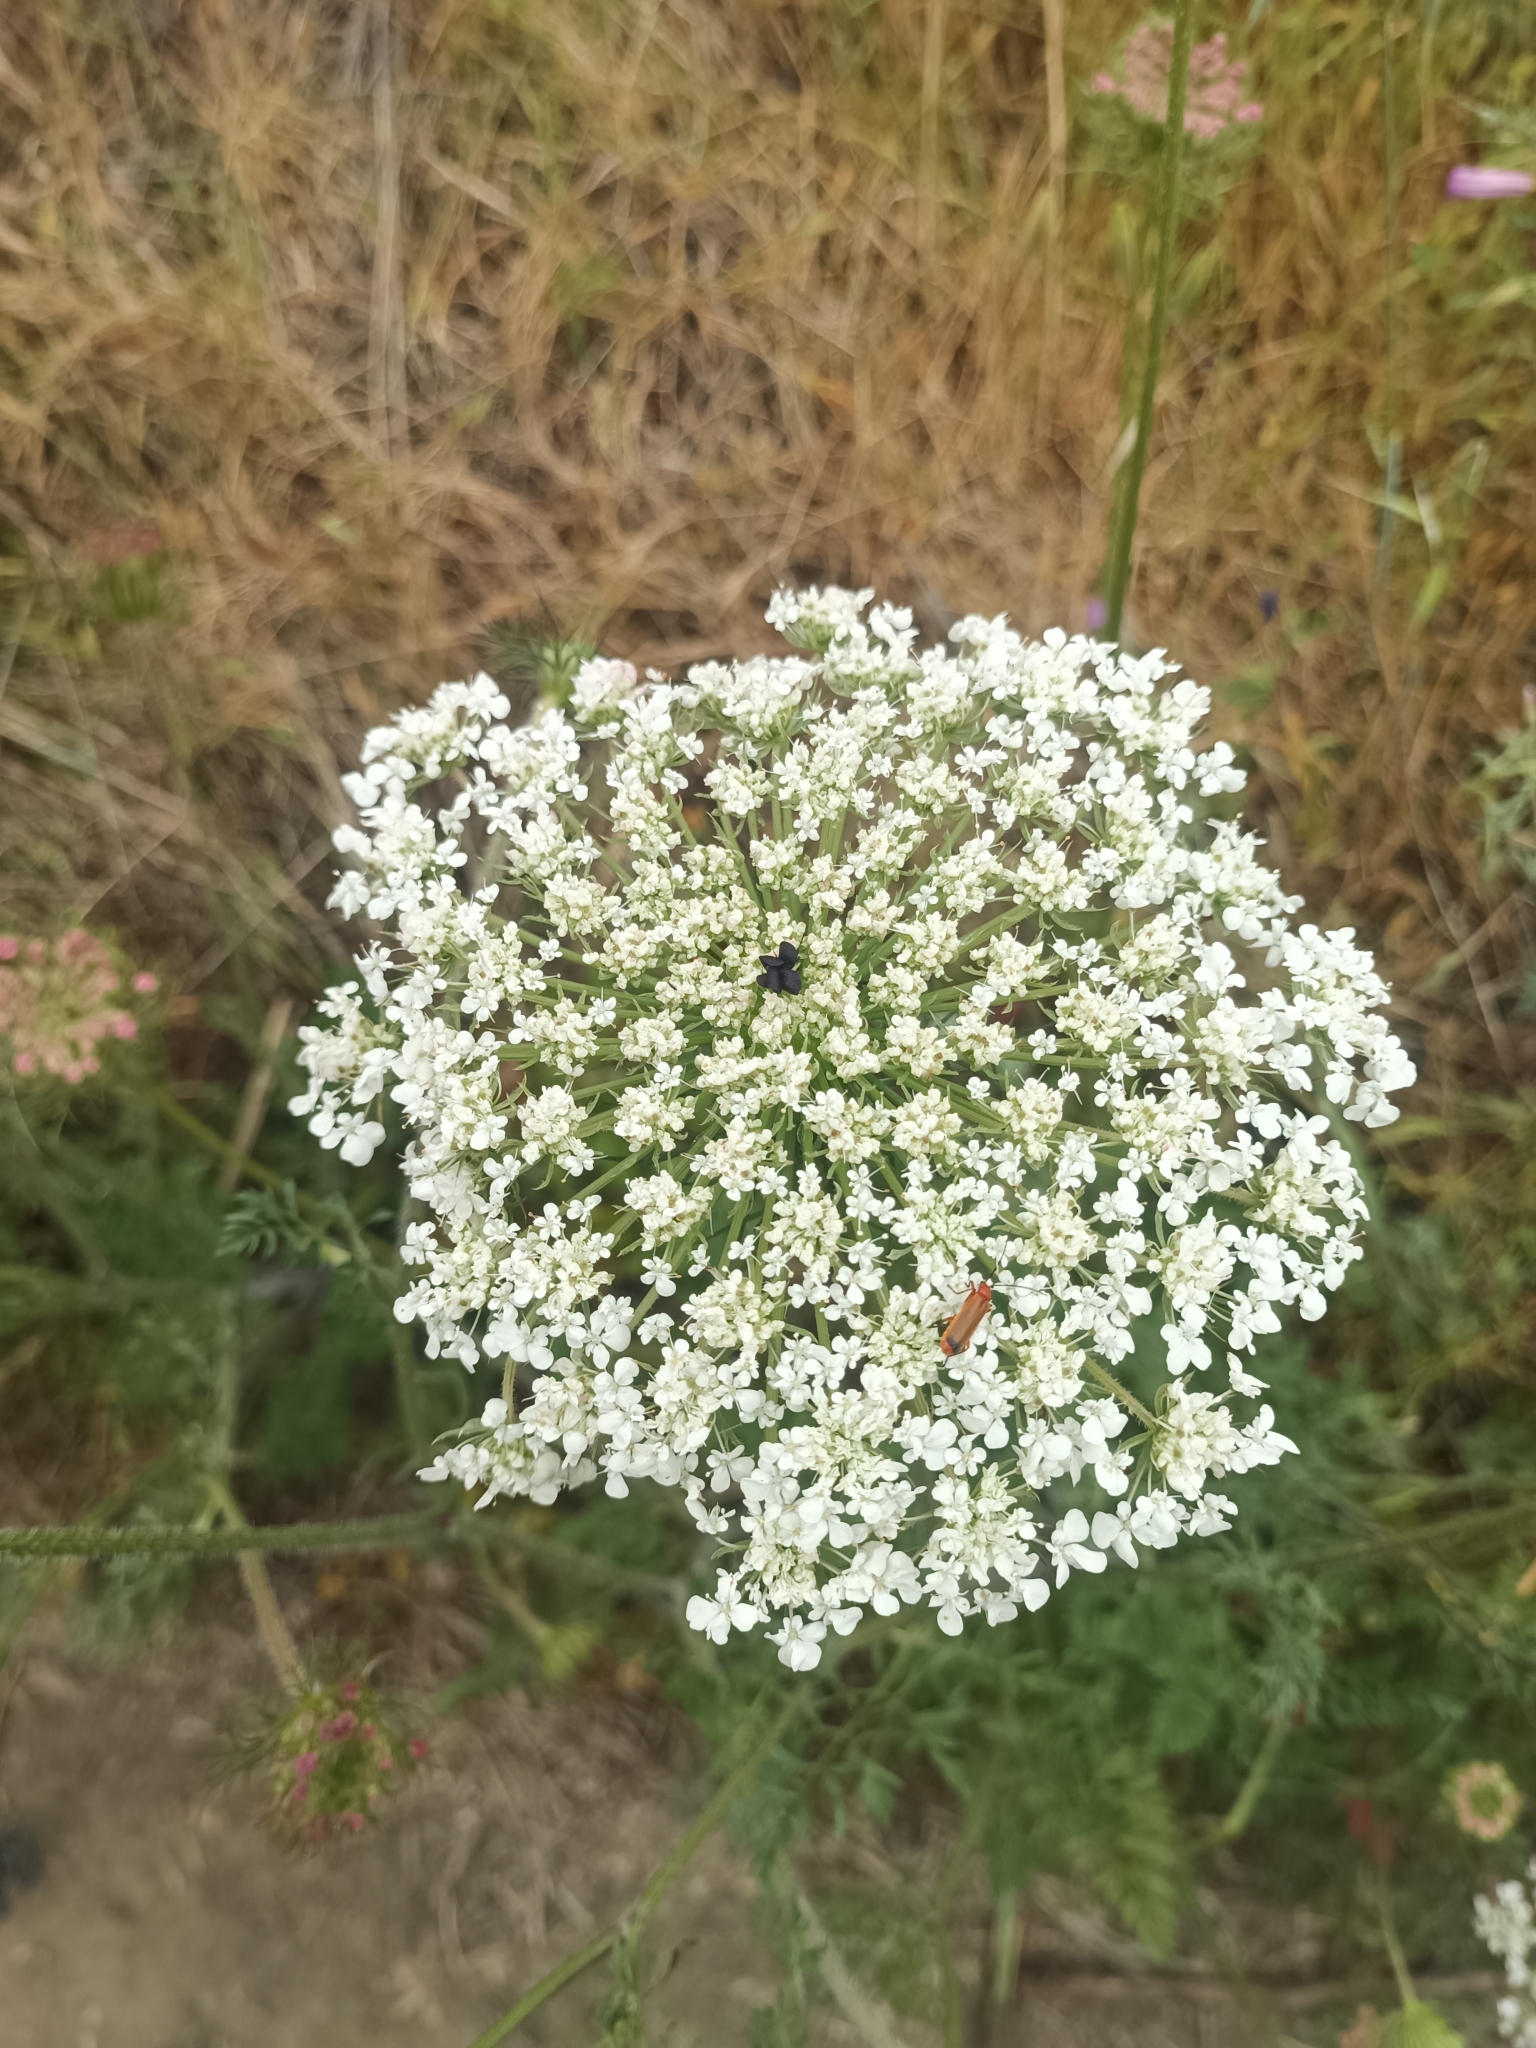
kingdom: Plantae
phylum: Tracheophyta
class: Magnoliopsida
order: Apiales
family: Apiaceae
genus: Daucus
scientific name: Daucus carota
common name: Wild carrot
